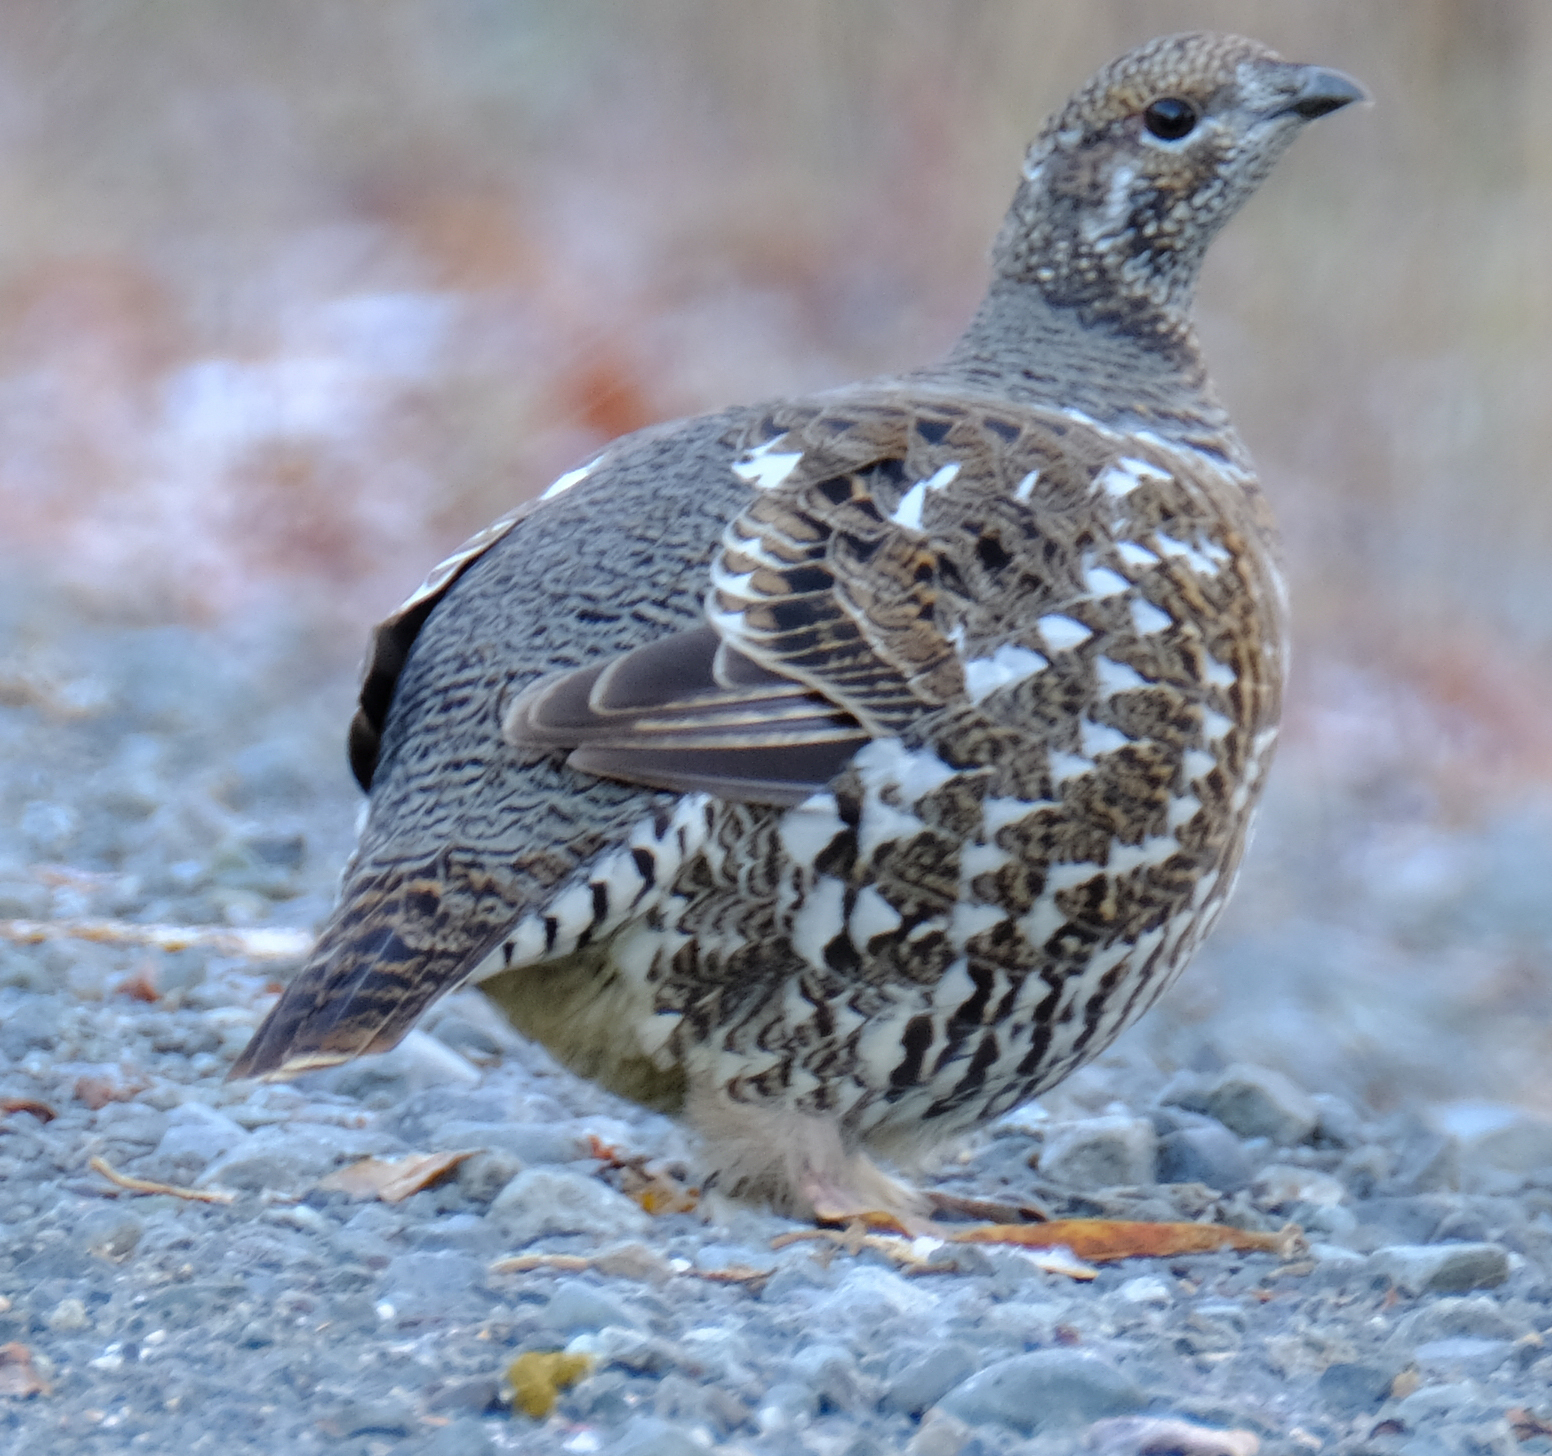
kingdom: Animalia
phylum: Chordata
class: Aves
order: Galliformes
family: Phasianidae
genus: Canachites
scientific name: Canachites canadensis
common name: Spruce grouse
